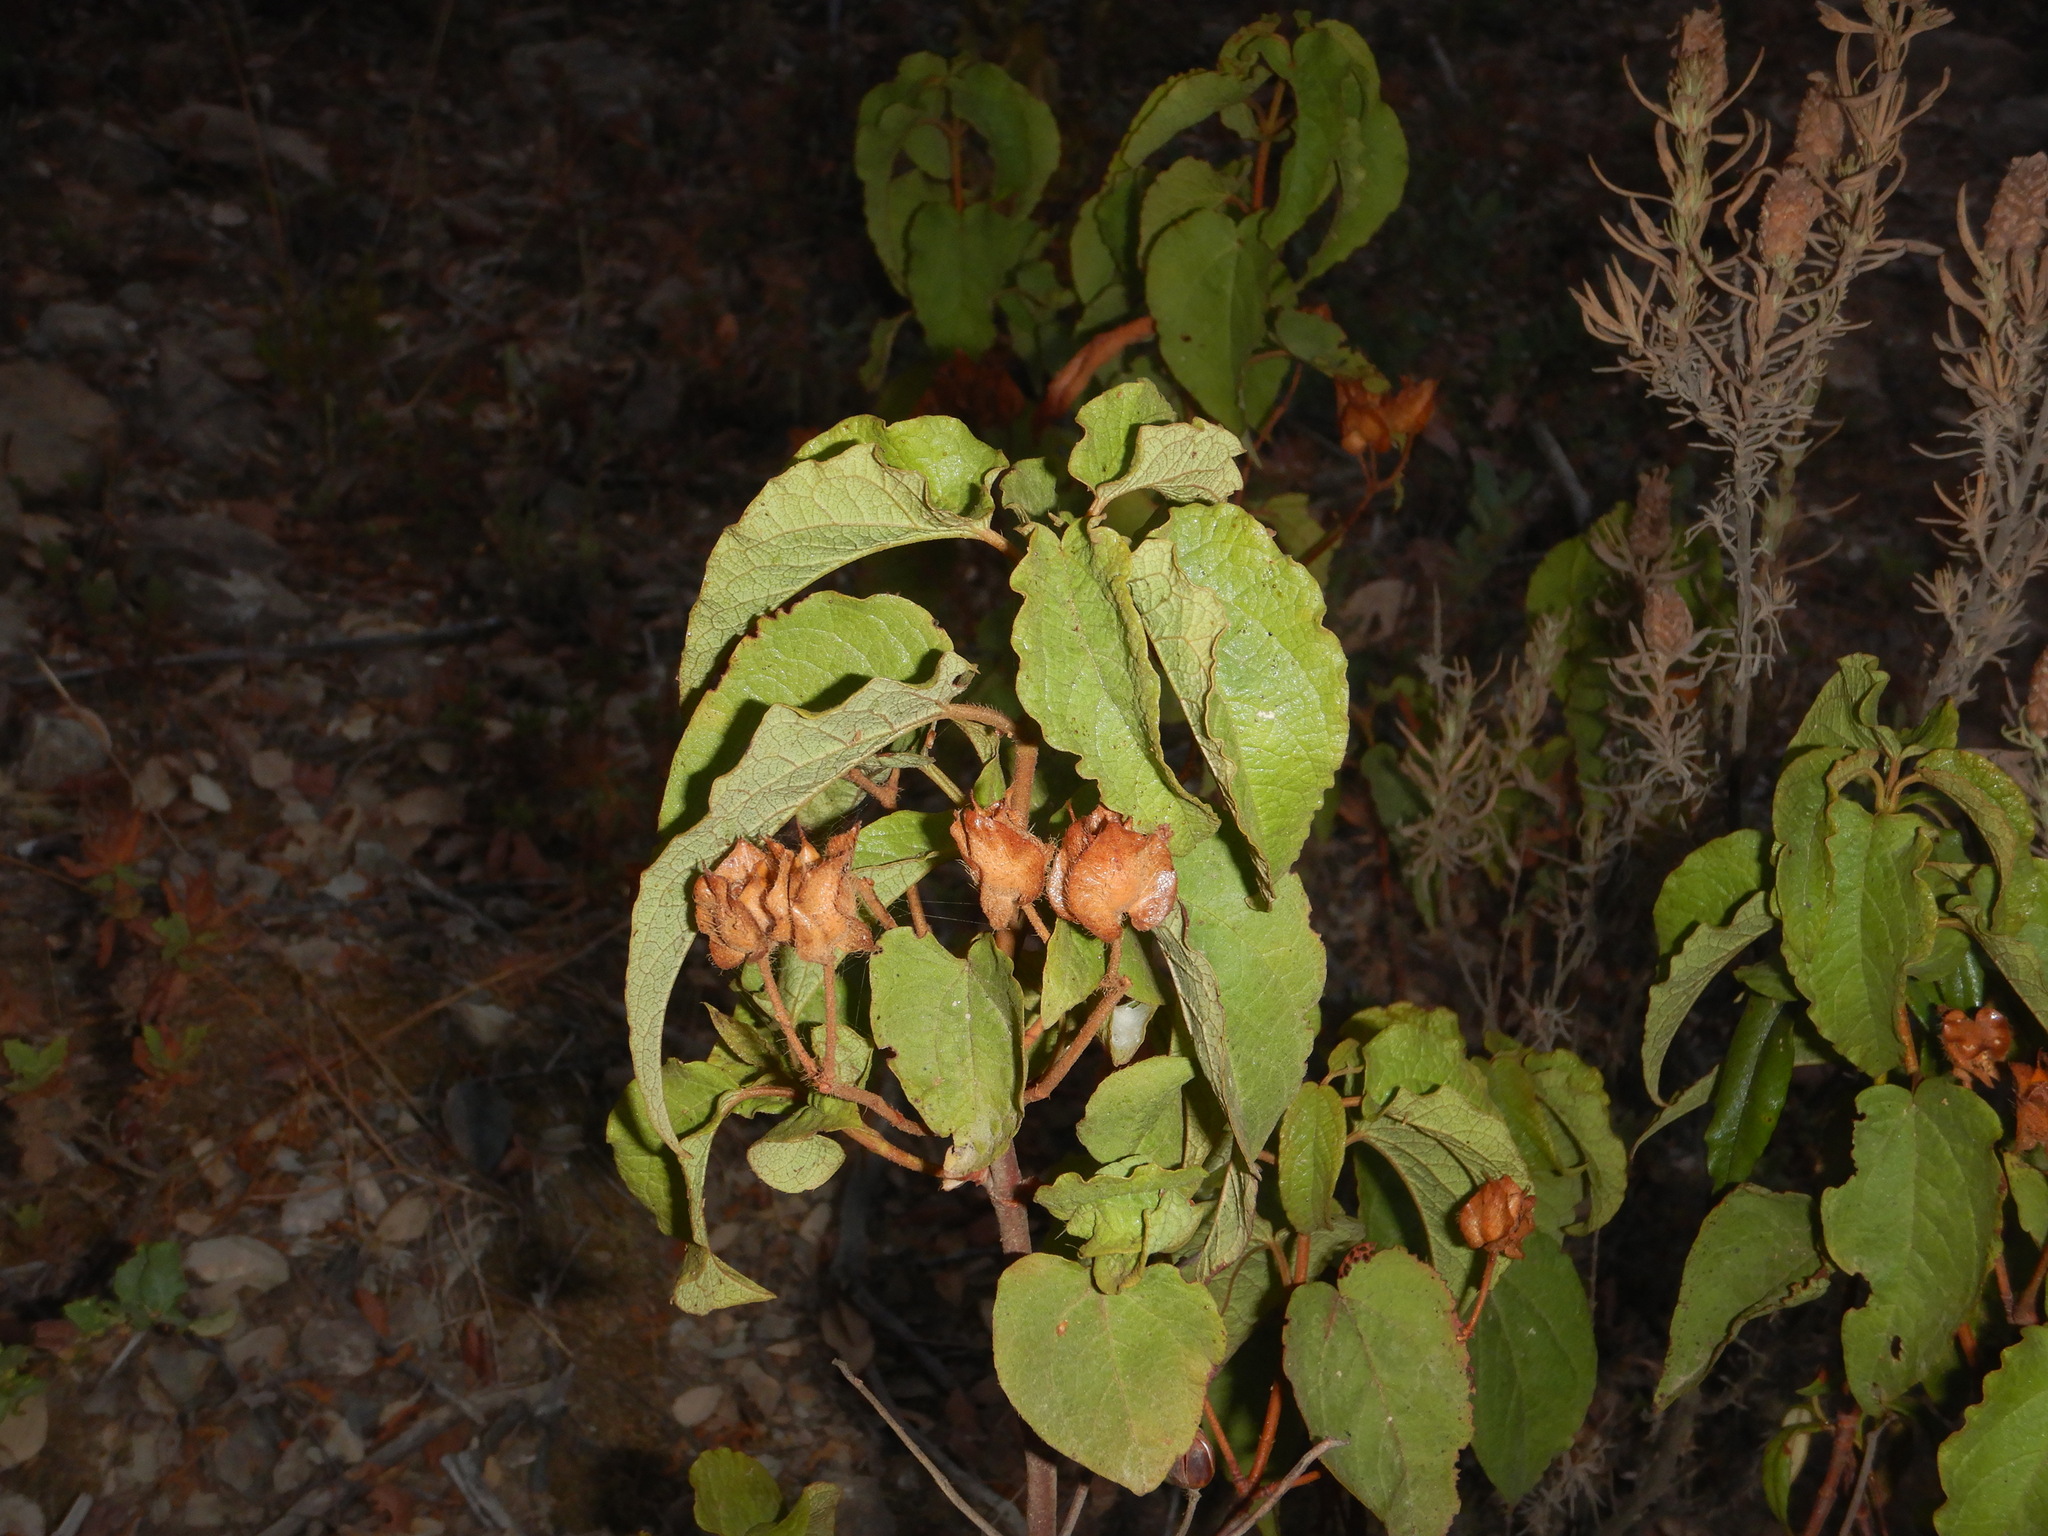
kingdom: Plantae
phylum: Tracheophyta
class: Magnoliopsida
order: Malvales
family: Cistaceae
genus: Cistus
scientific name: Cistus populifolius
